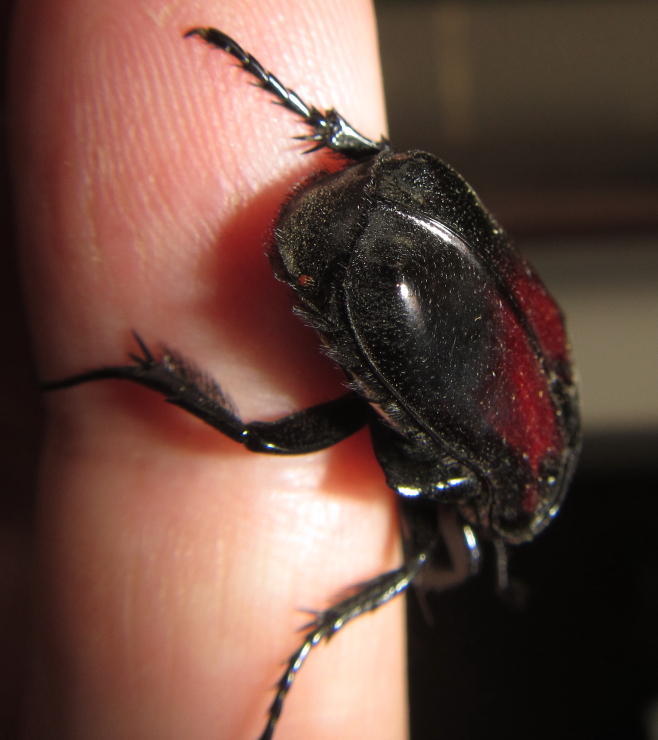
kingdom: Animalia
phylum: Arthropoda
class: Insecta
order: Coleoptera
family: Scarabaeidae
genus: Diplognatha
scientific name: Diplognatha gagates
